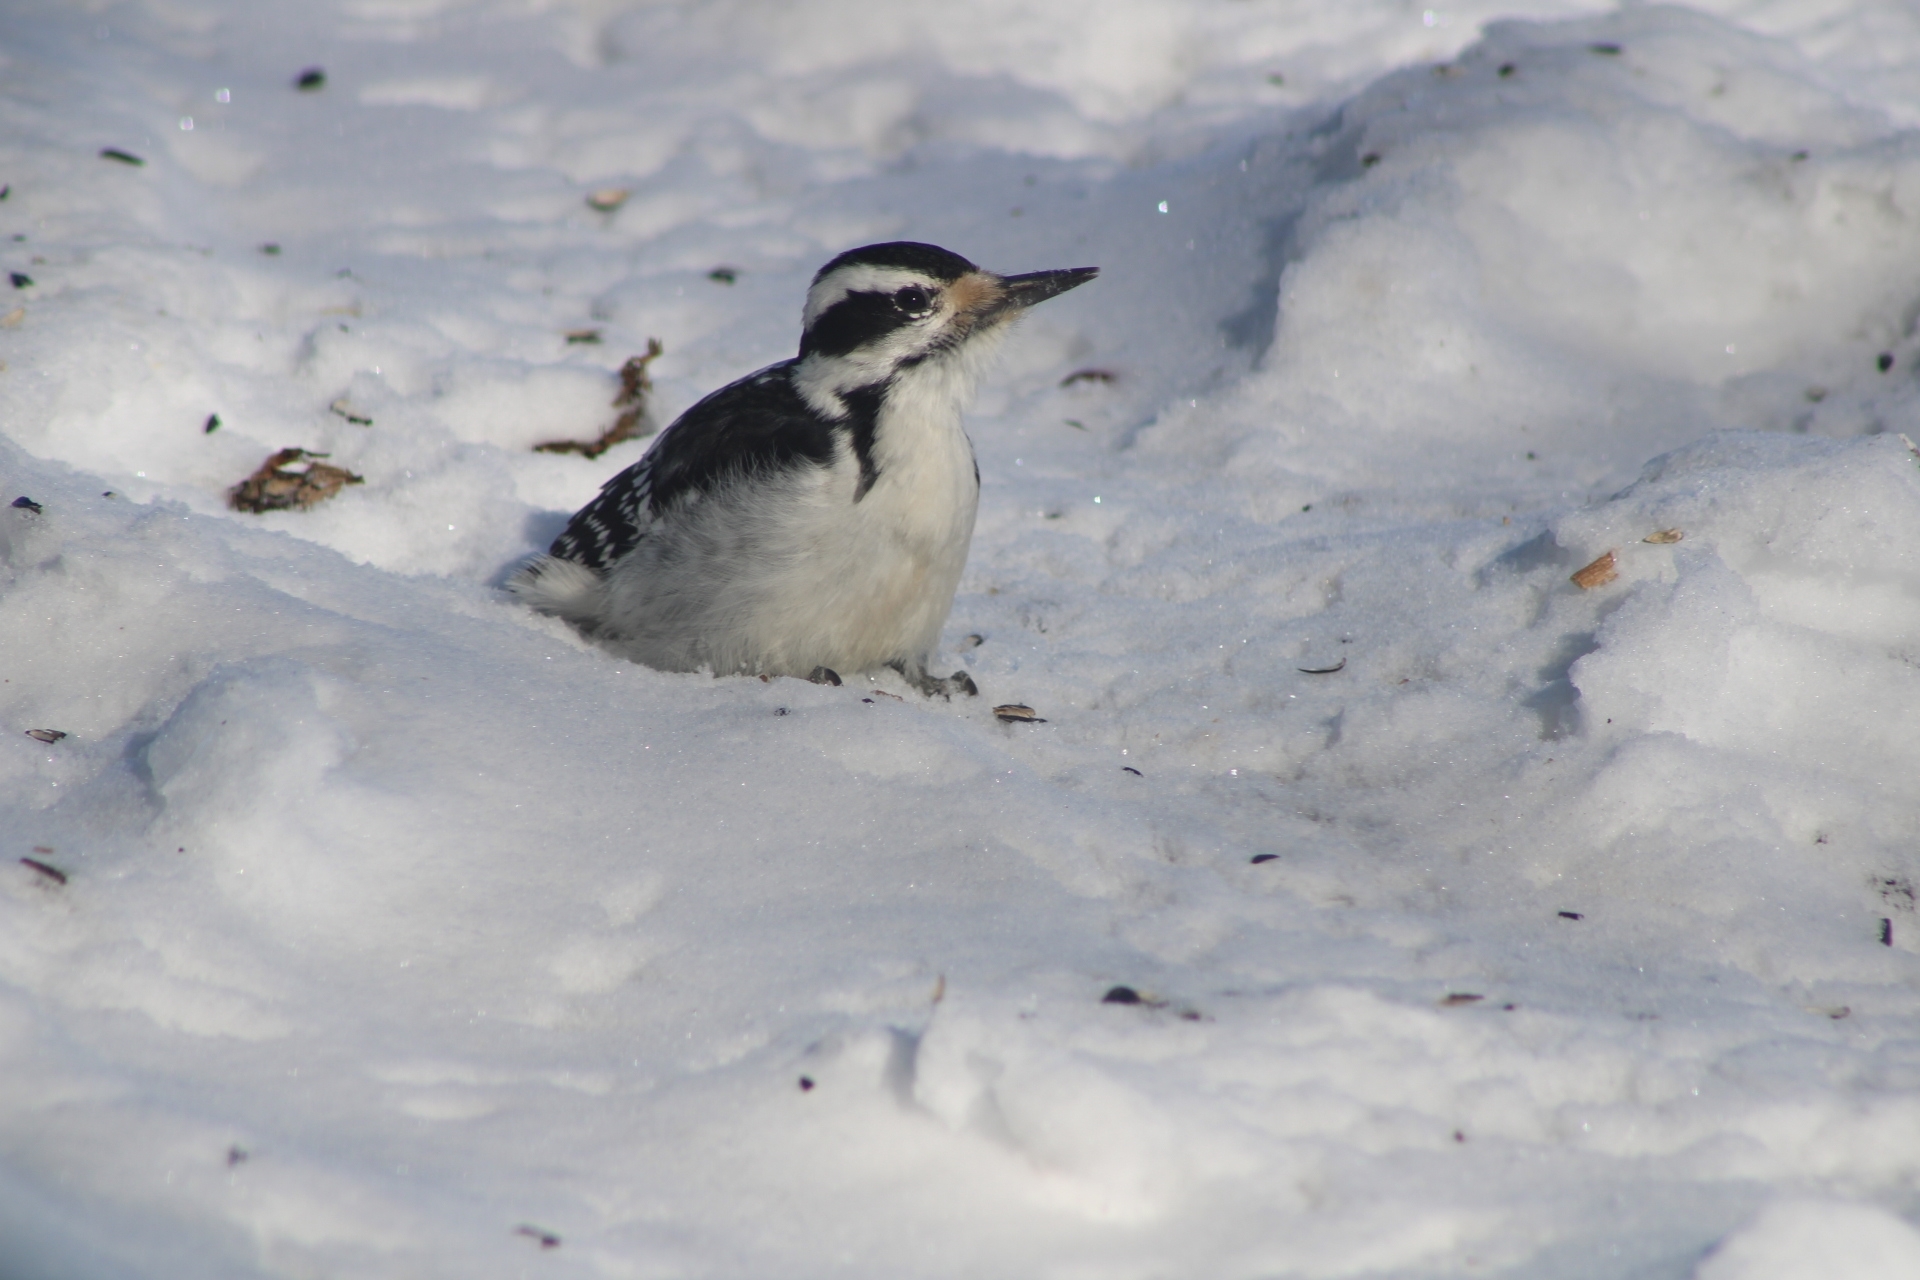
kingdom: Animalia
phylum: Chordata
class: Aves
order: Piciformes
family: Picidae
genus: Leuconotopicus
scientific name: Leuconotopicus villosus
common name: Hairy woodpecker
